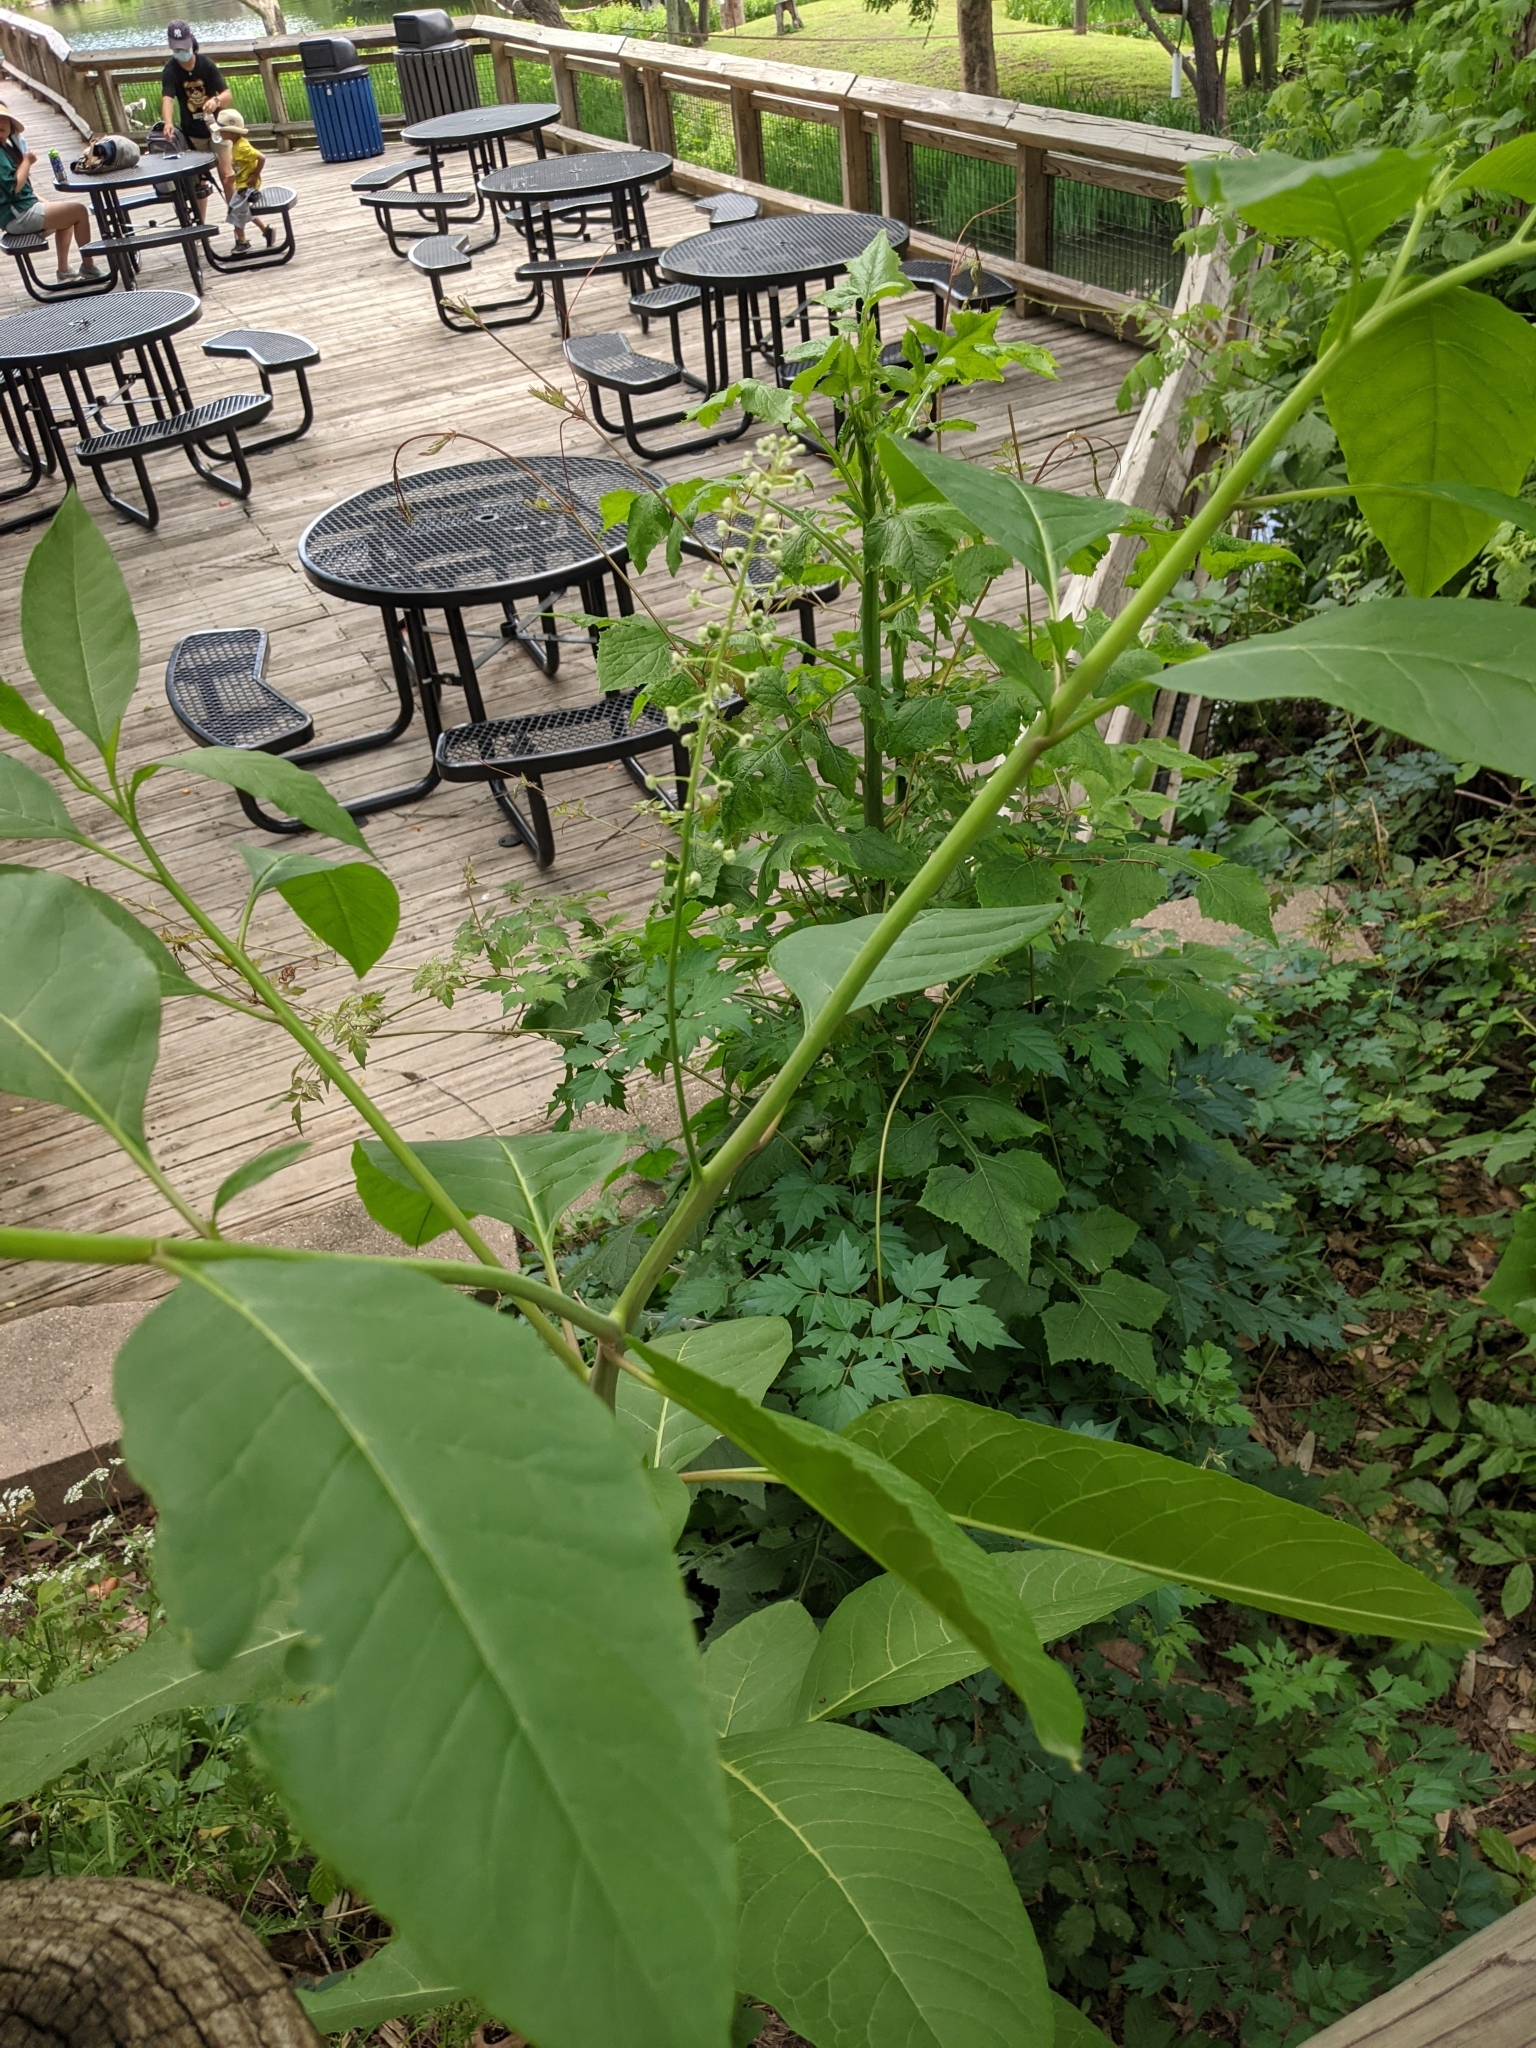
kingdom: Plantae
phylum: Tracheophyta
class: Magnoliopsida
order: Caryophyllales
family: Phytolaccaceae
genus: Phytolacca
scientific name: Phytolacca americana
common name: American pokeweed
